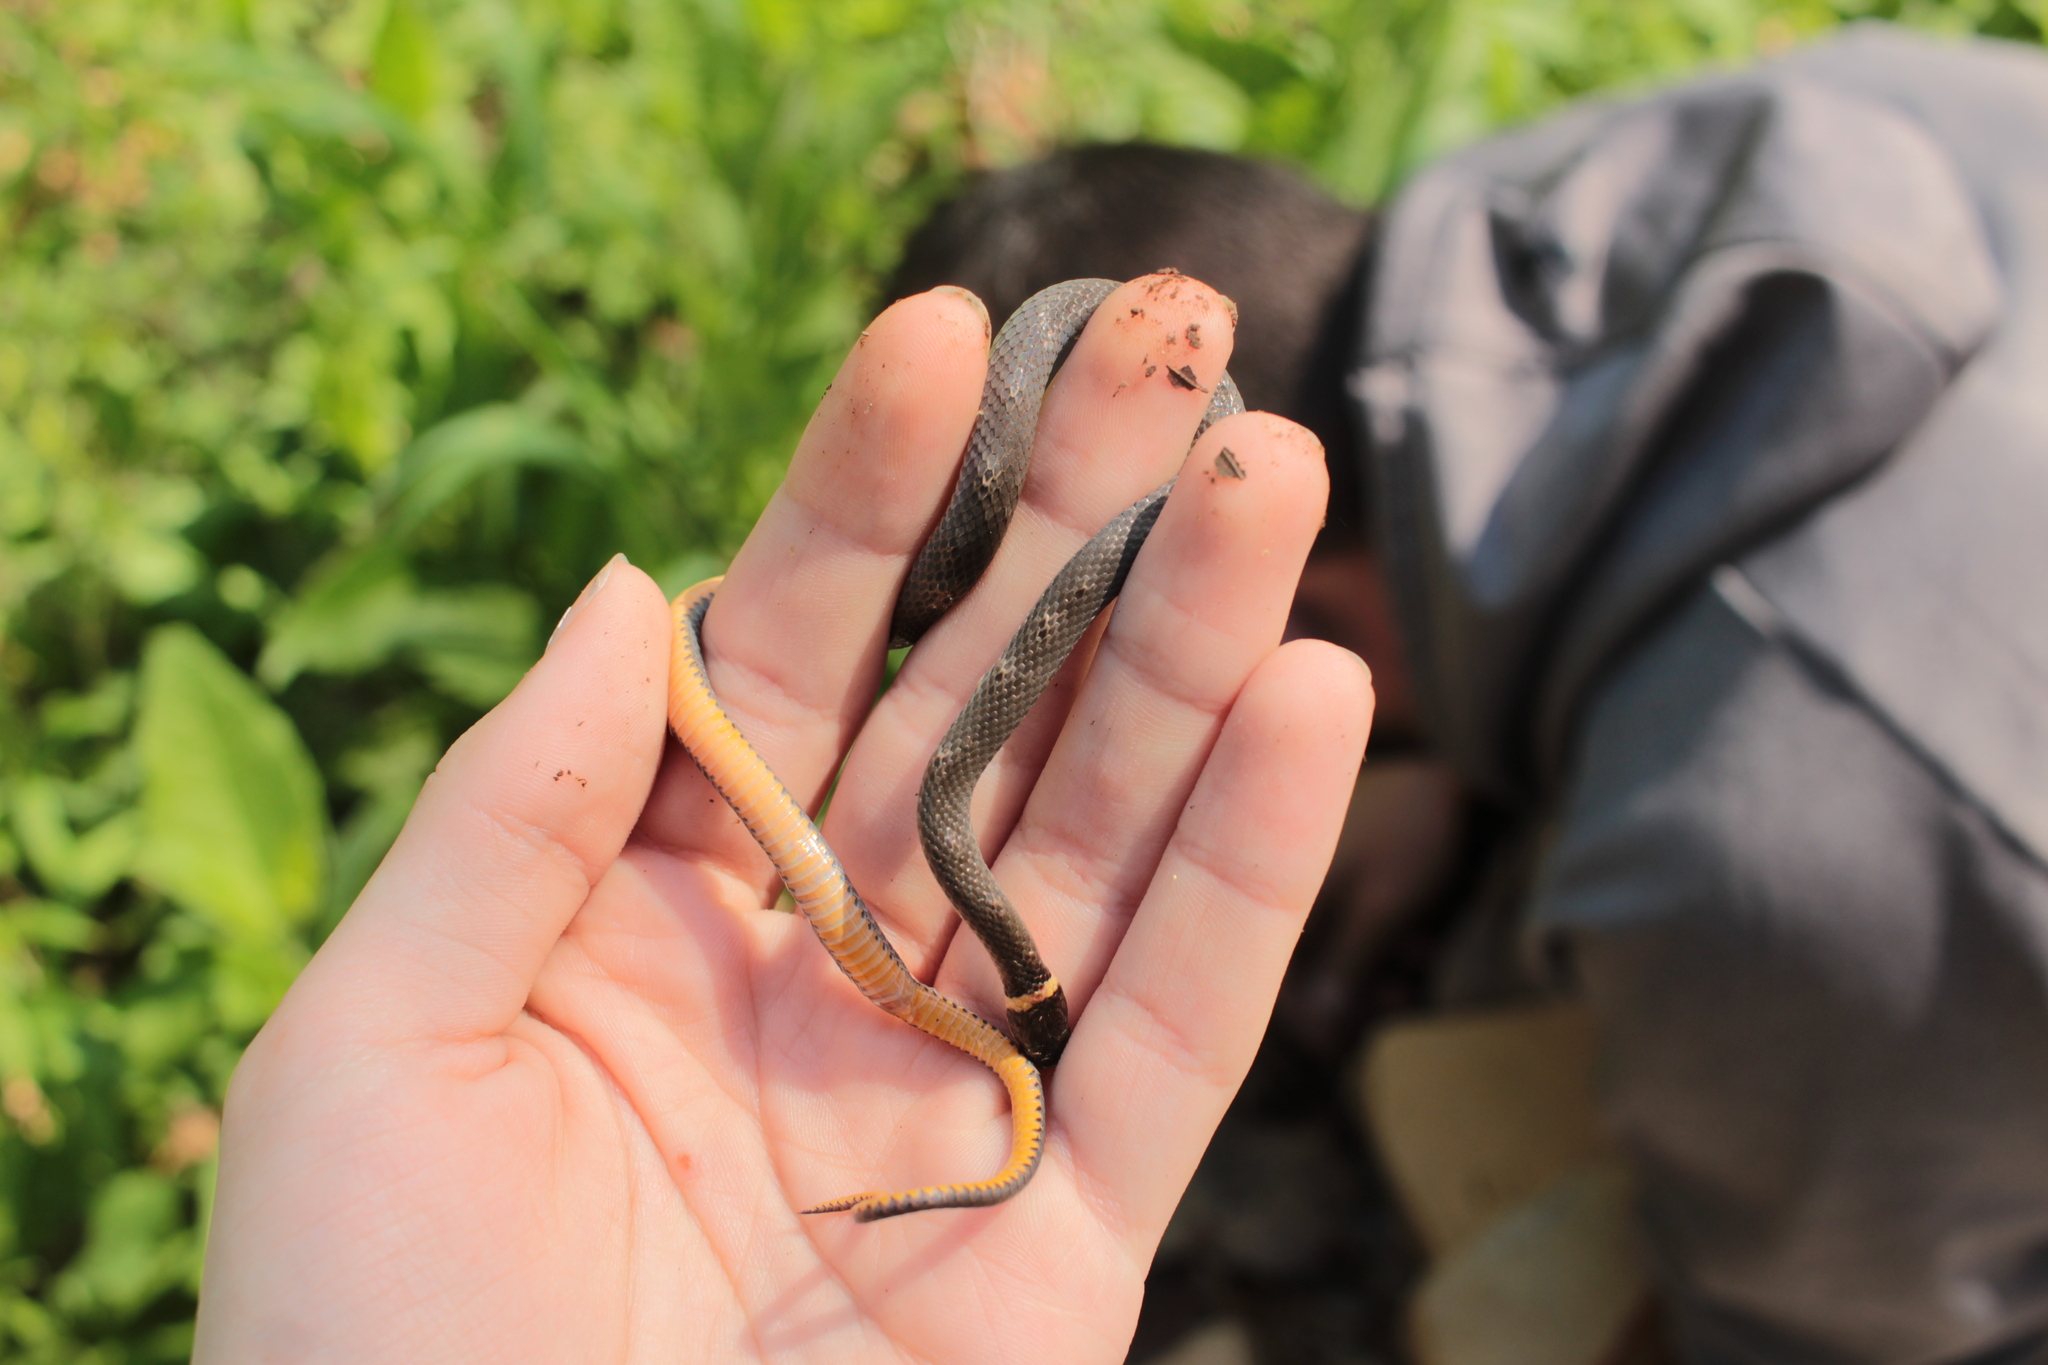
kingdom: Animalia
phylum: Chordata
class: Squamata
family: Colubridae
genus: Diadophis
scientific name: Diadophis punctatus
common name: Ringneck snake
